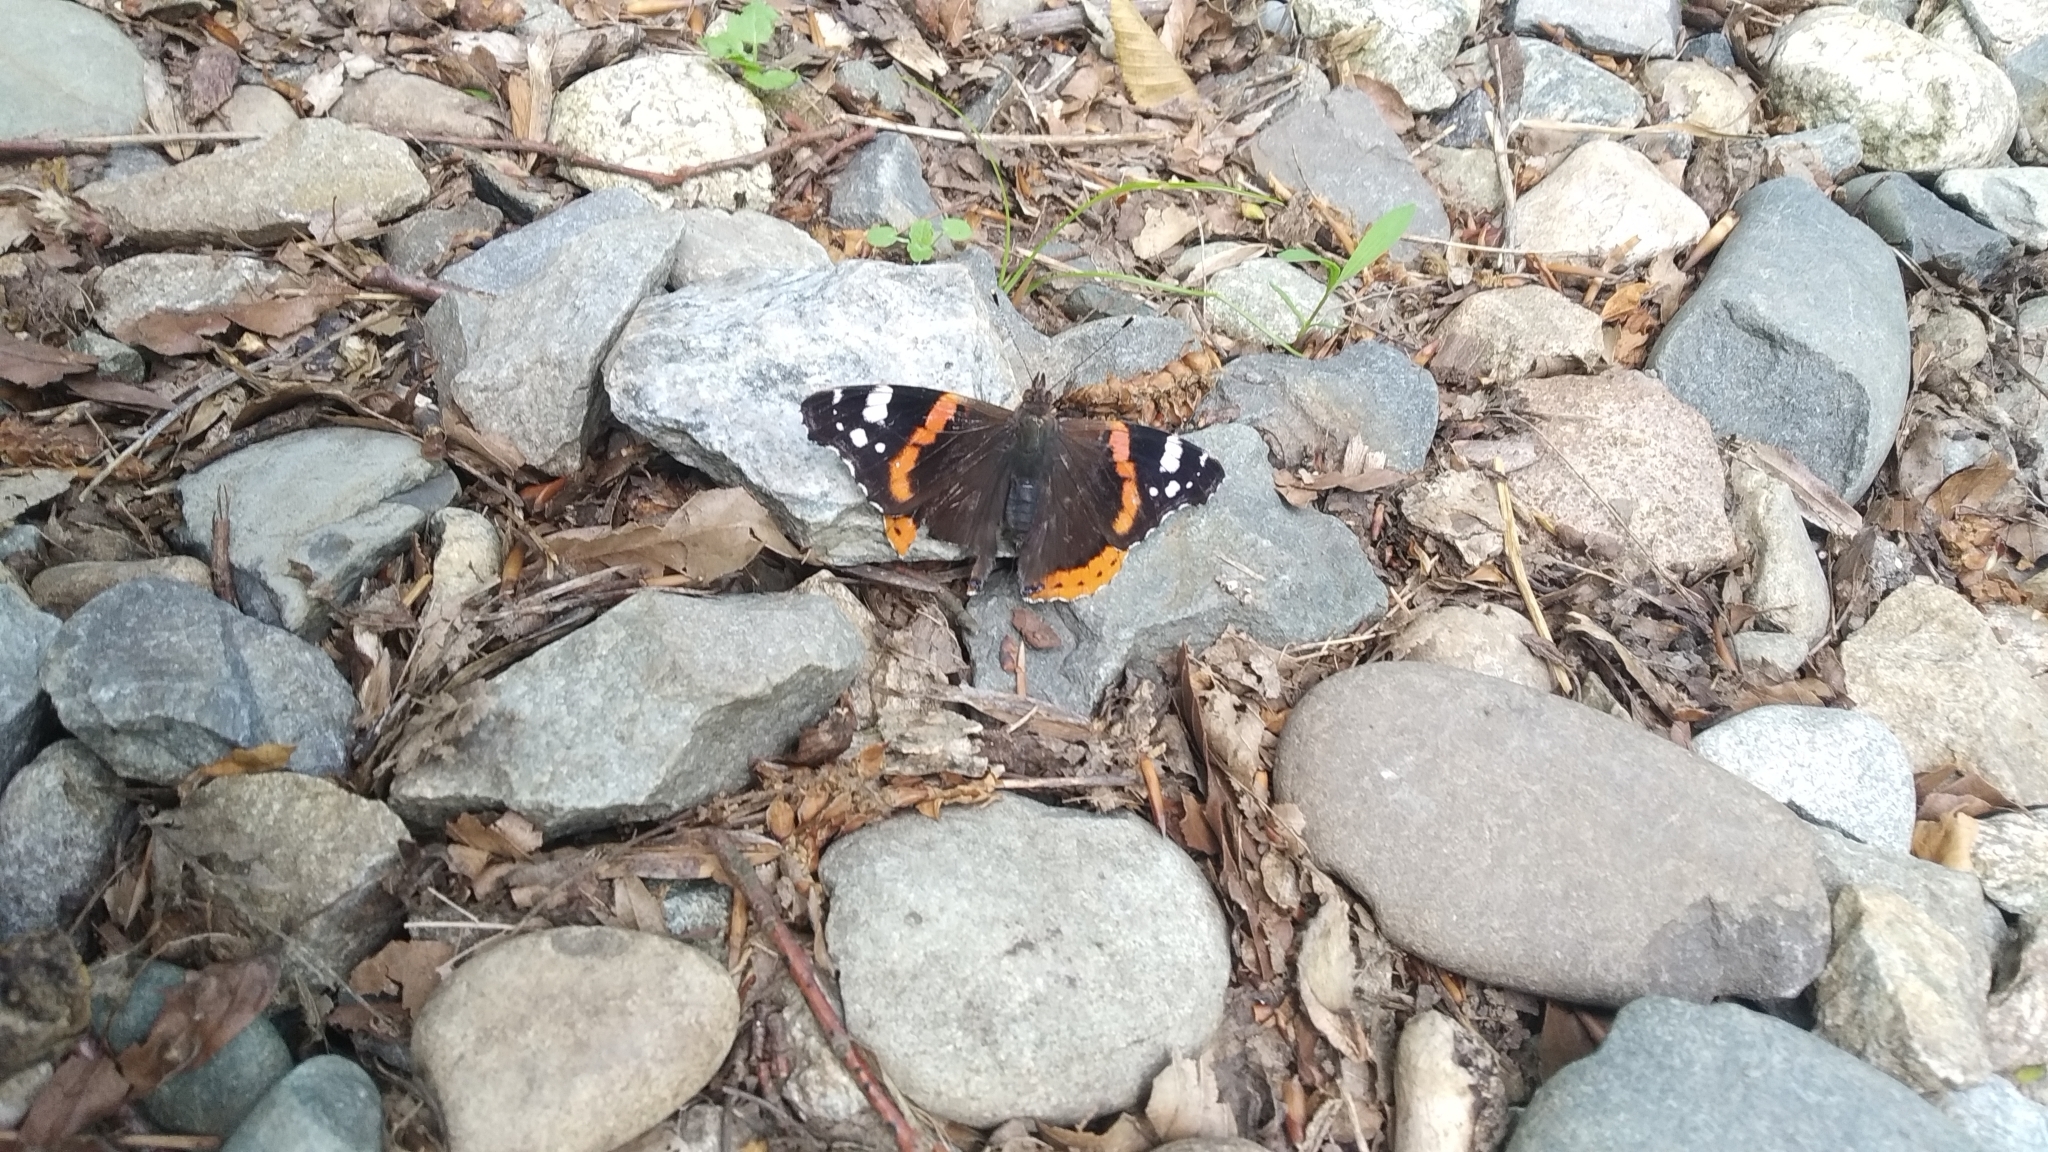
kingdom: Animalia
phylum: Arthropoda
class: Insecta
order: Lepidoptera
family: Nymphalidae
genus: Vanessa
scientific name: Vanessa atalanta
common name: Red admiral
